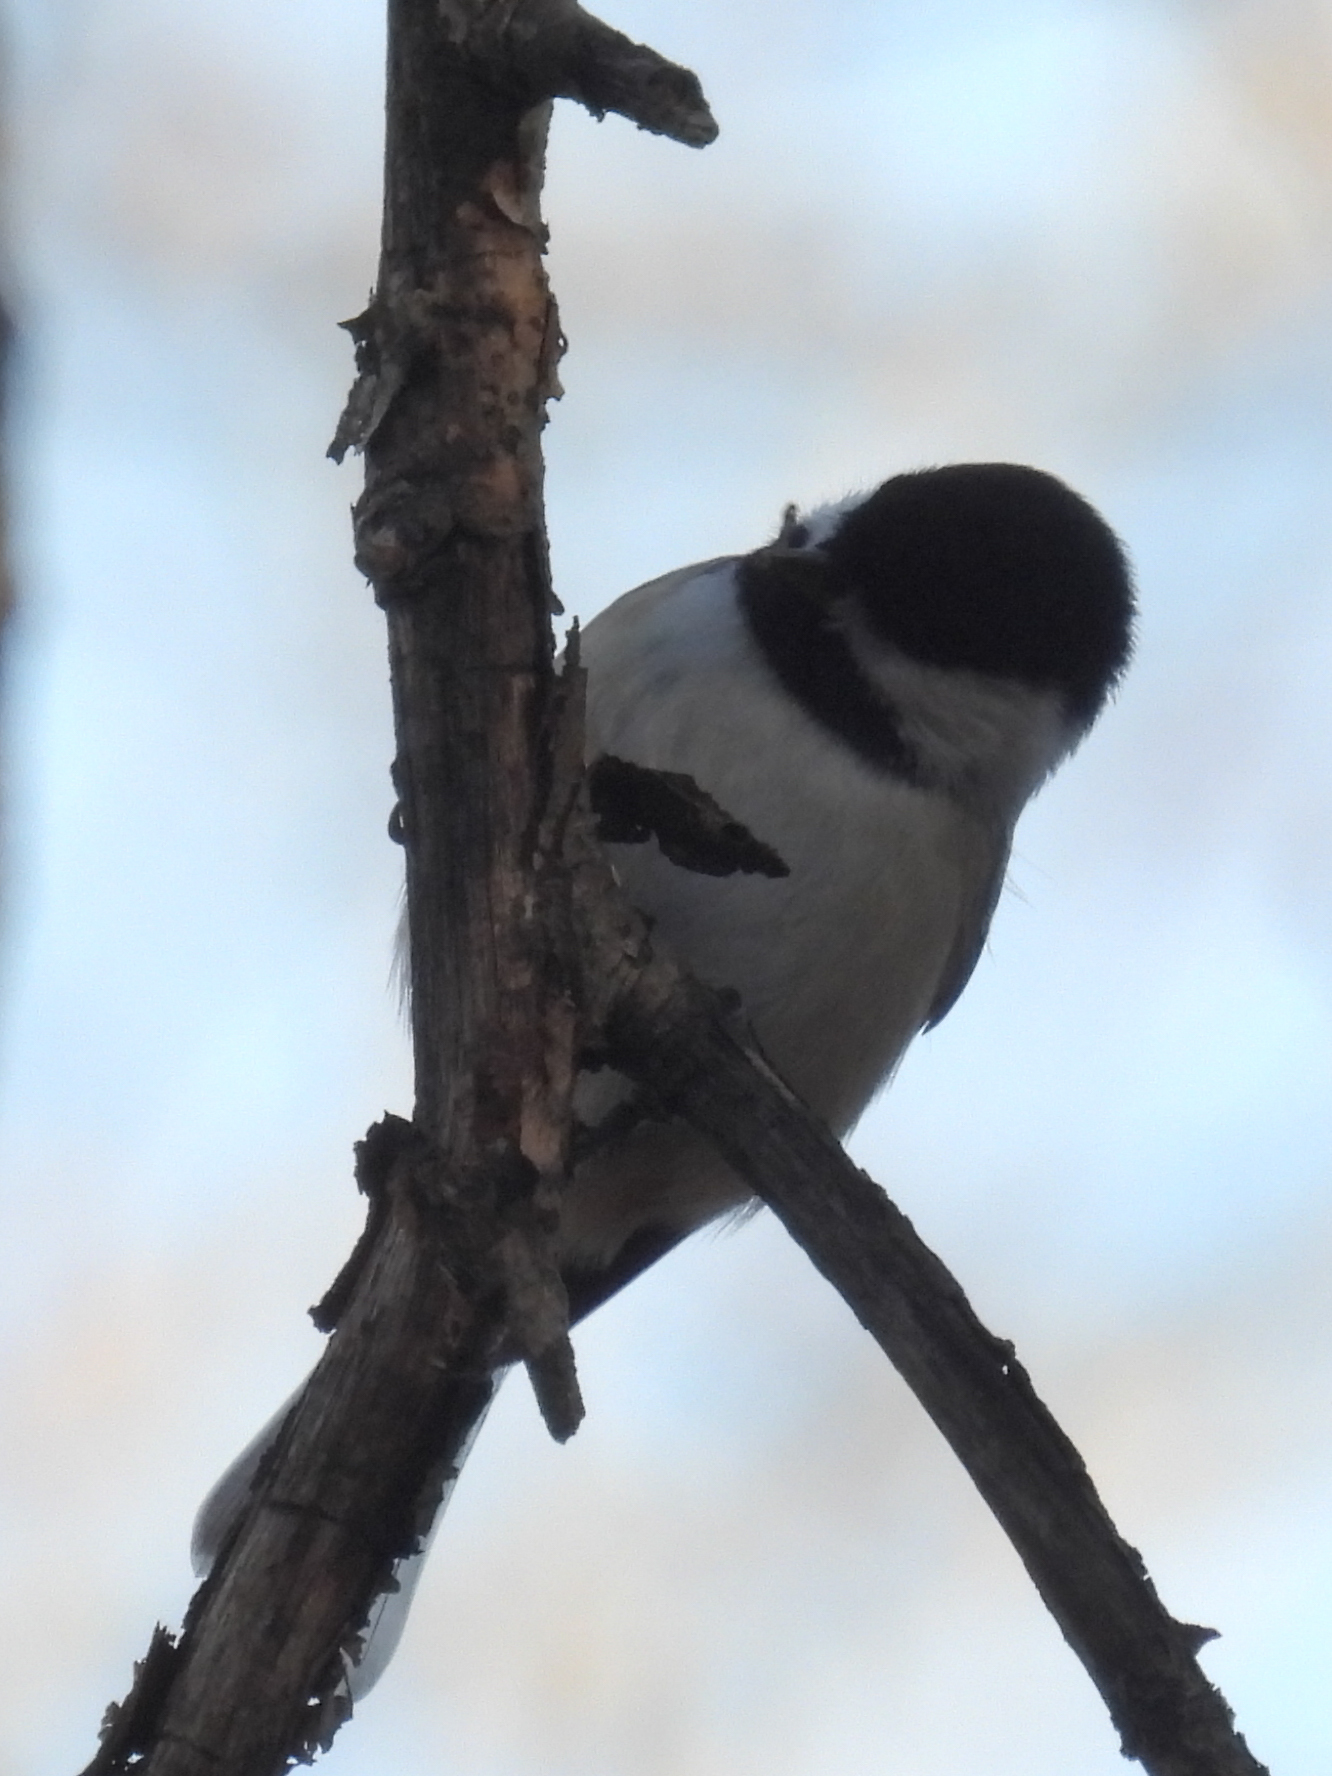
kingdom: Animalia
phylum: Chordata
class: Aves
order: Passeriformes
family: Paridae
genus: Poecile
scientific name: Poecile atricapillus
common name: Black-capped chickadee
